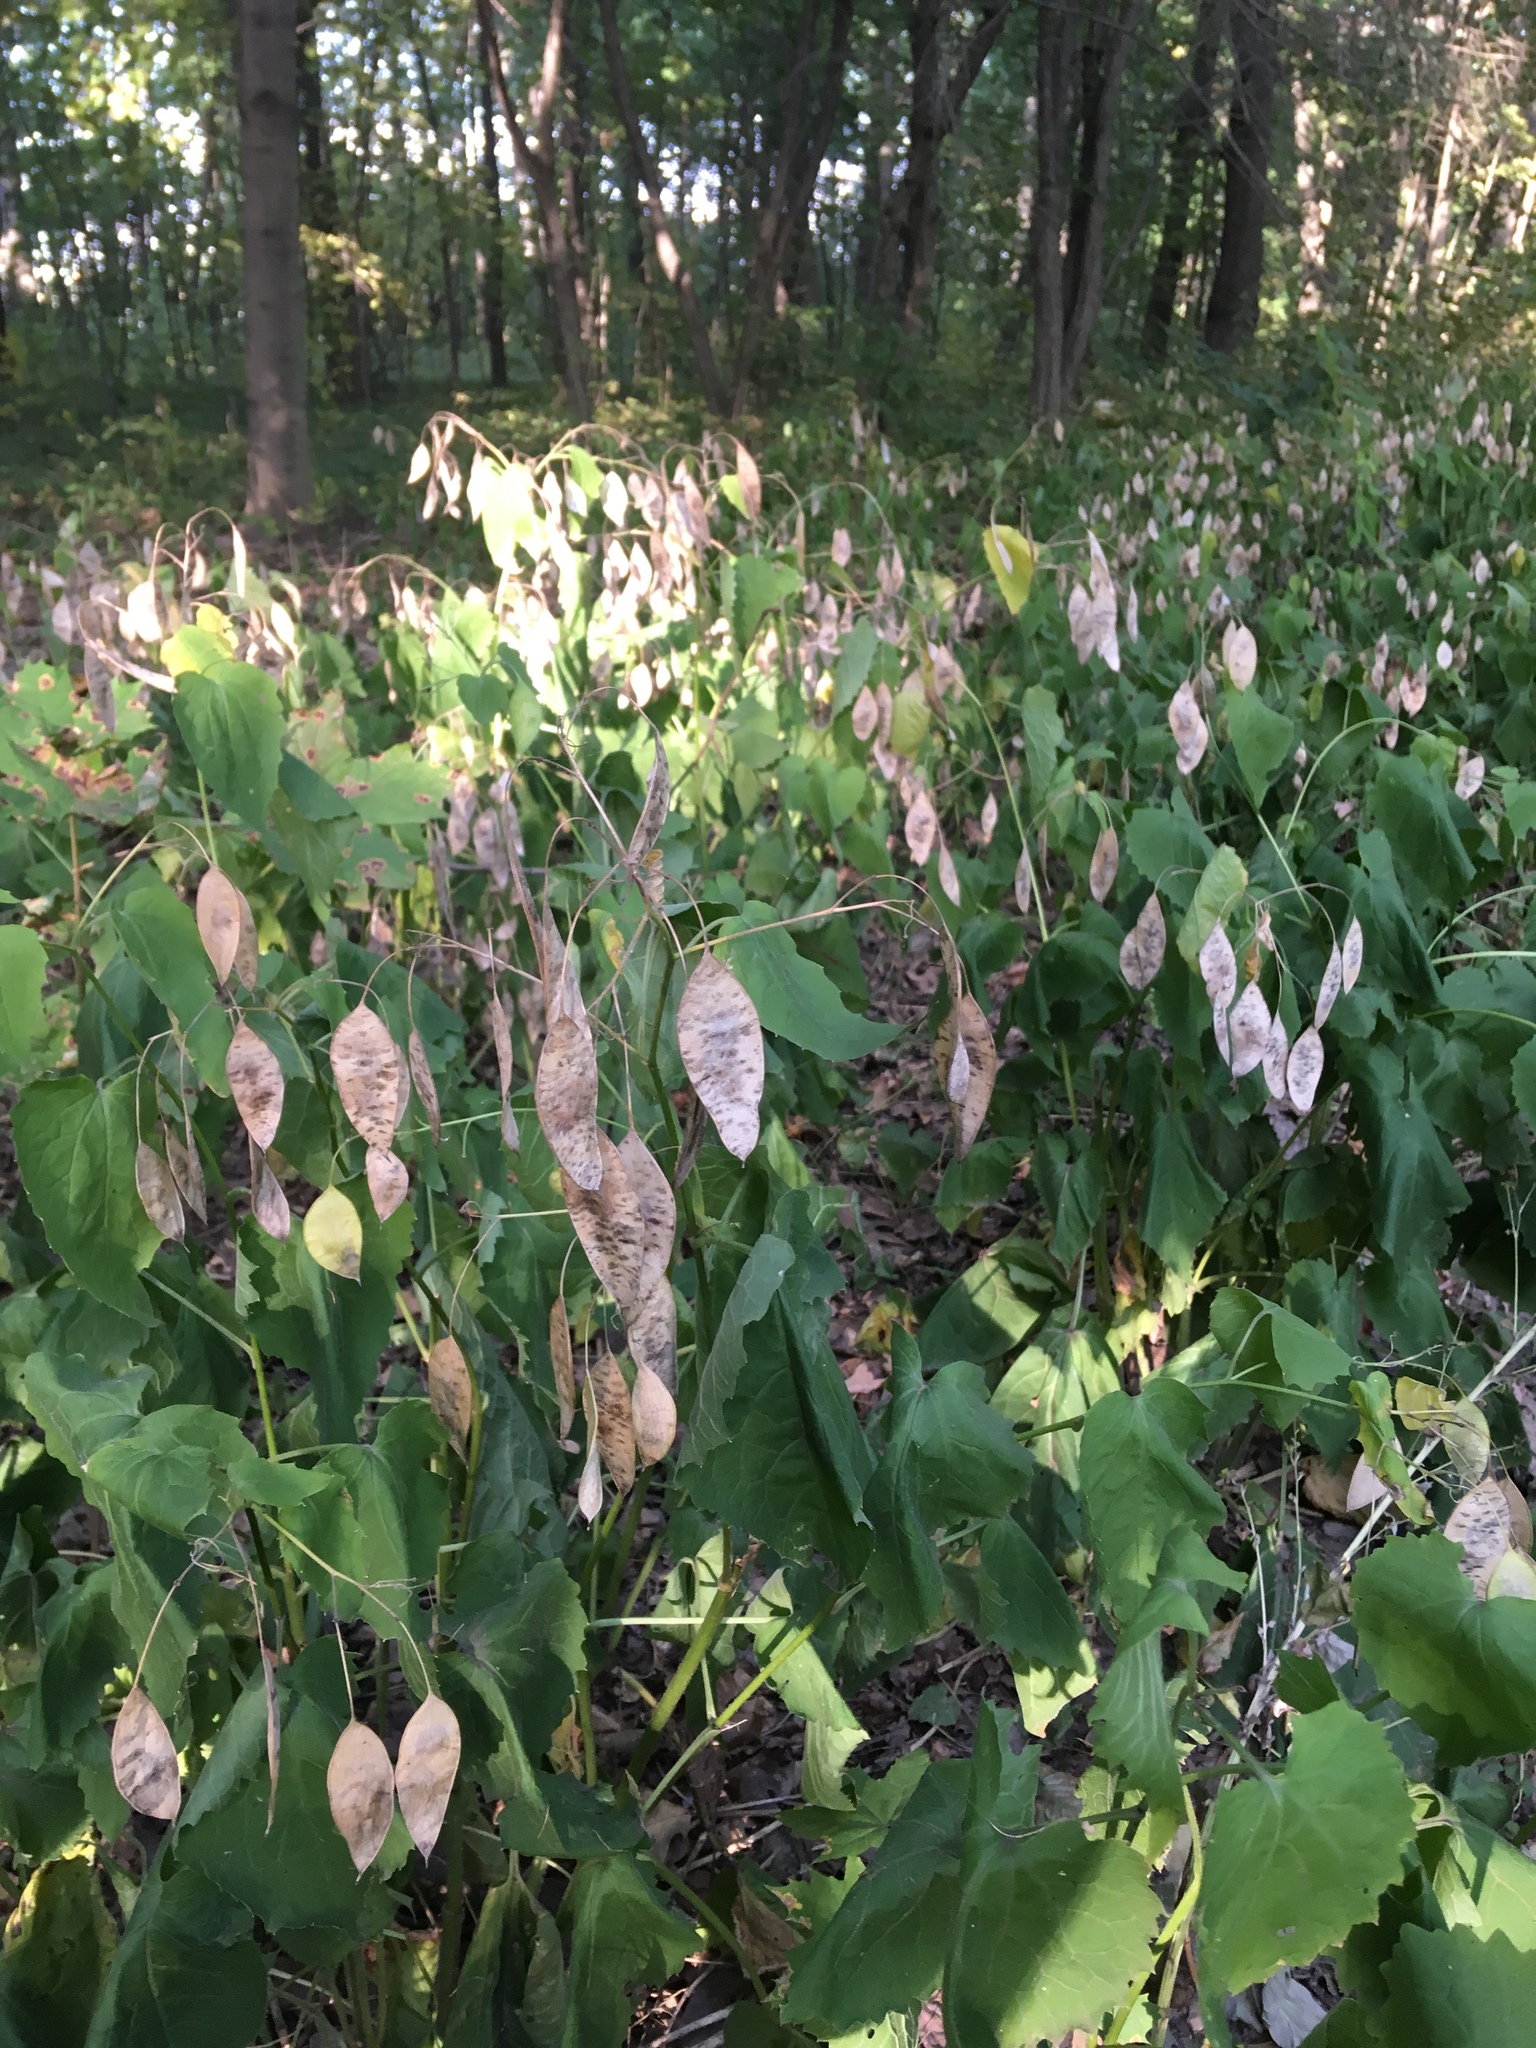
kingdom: Plantae
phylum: Tracheophyta
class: Magnoliopsida
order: Brassicales
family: Brassicaceae
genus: Lunaria
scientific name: Lunaria rediviva
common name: Perennial honesty
